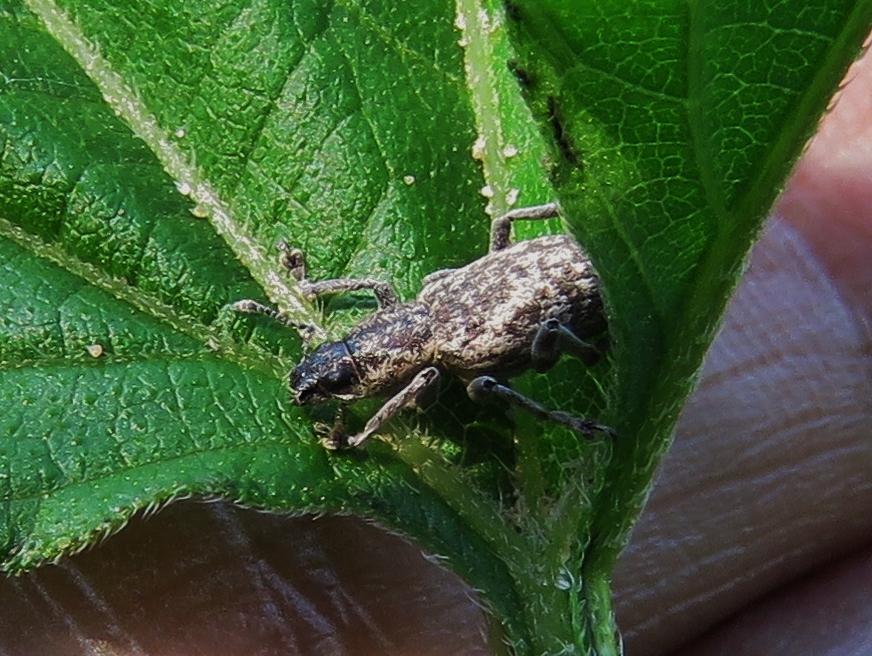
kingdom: Animalia
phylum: Arthropoda
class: Insecta
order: Coleoptera
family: Curculionidae
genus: Tanymecus
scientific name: Tanymecus confusus
